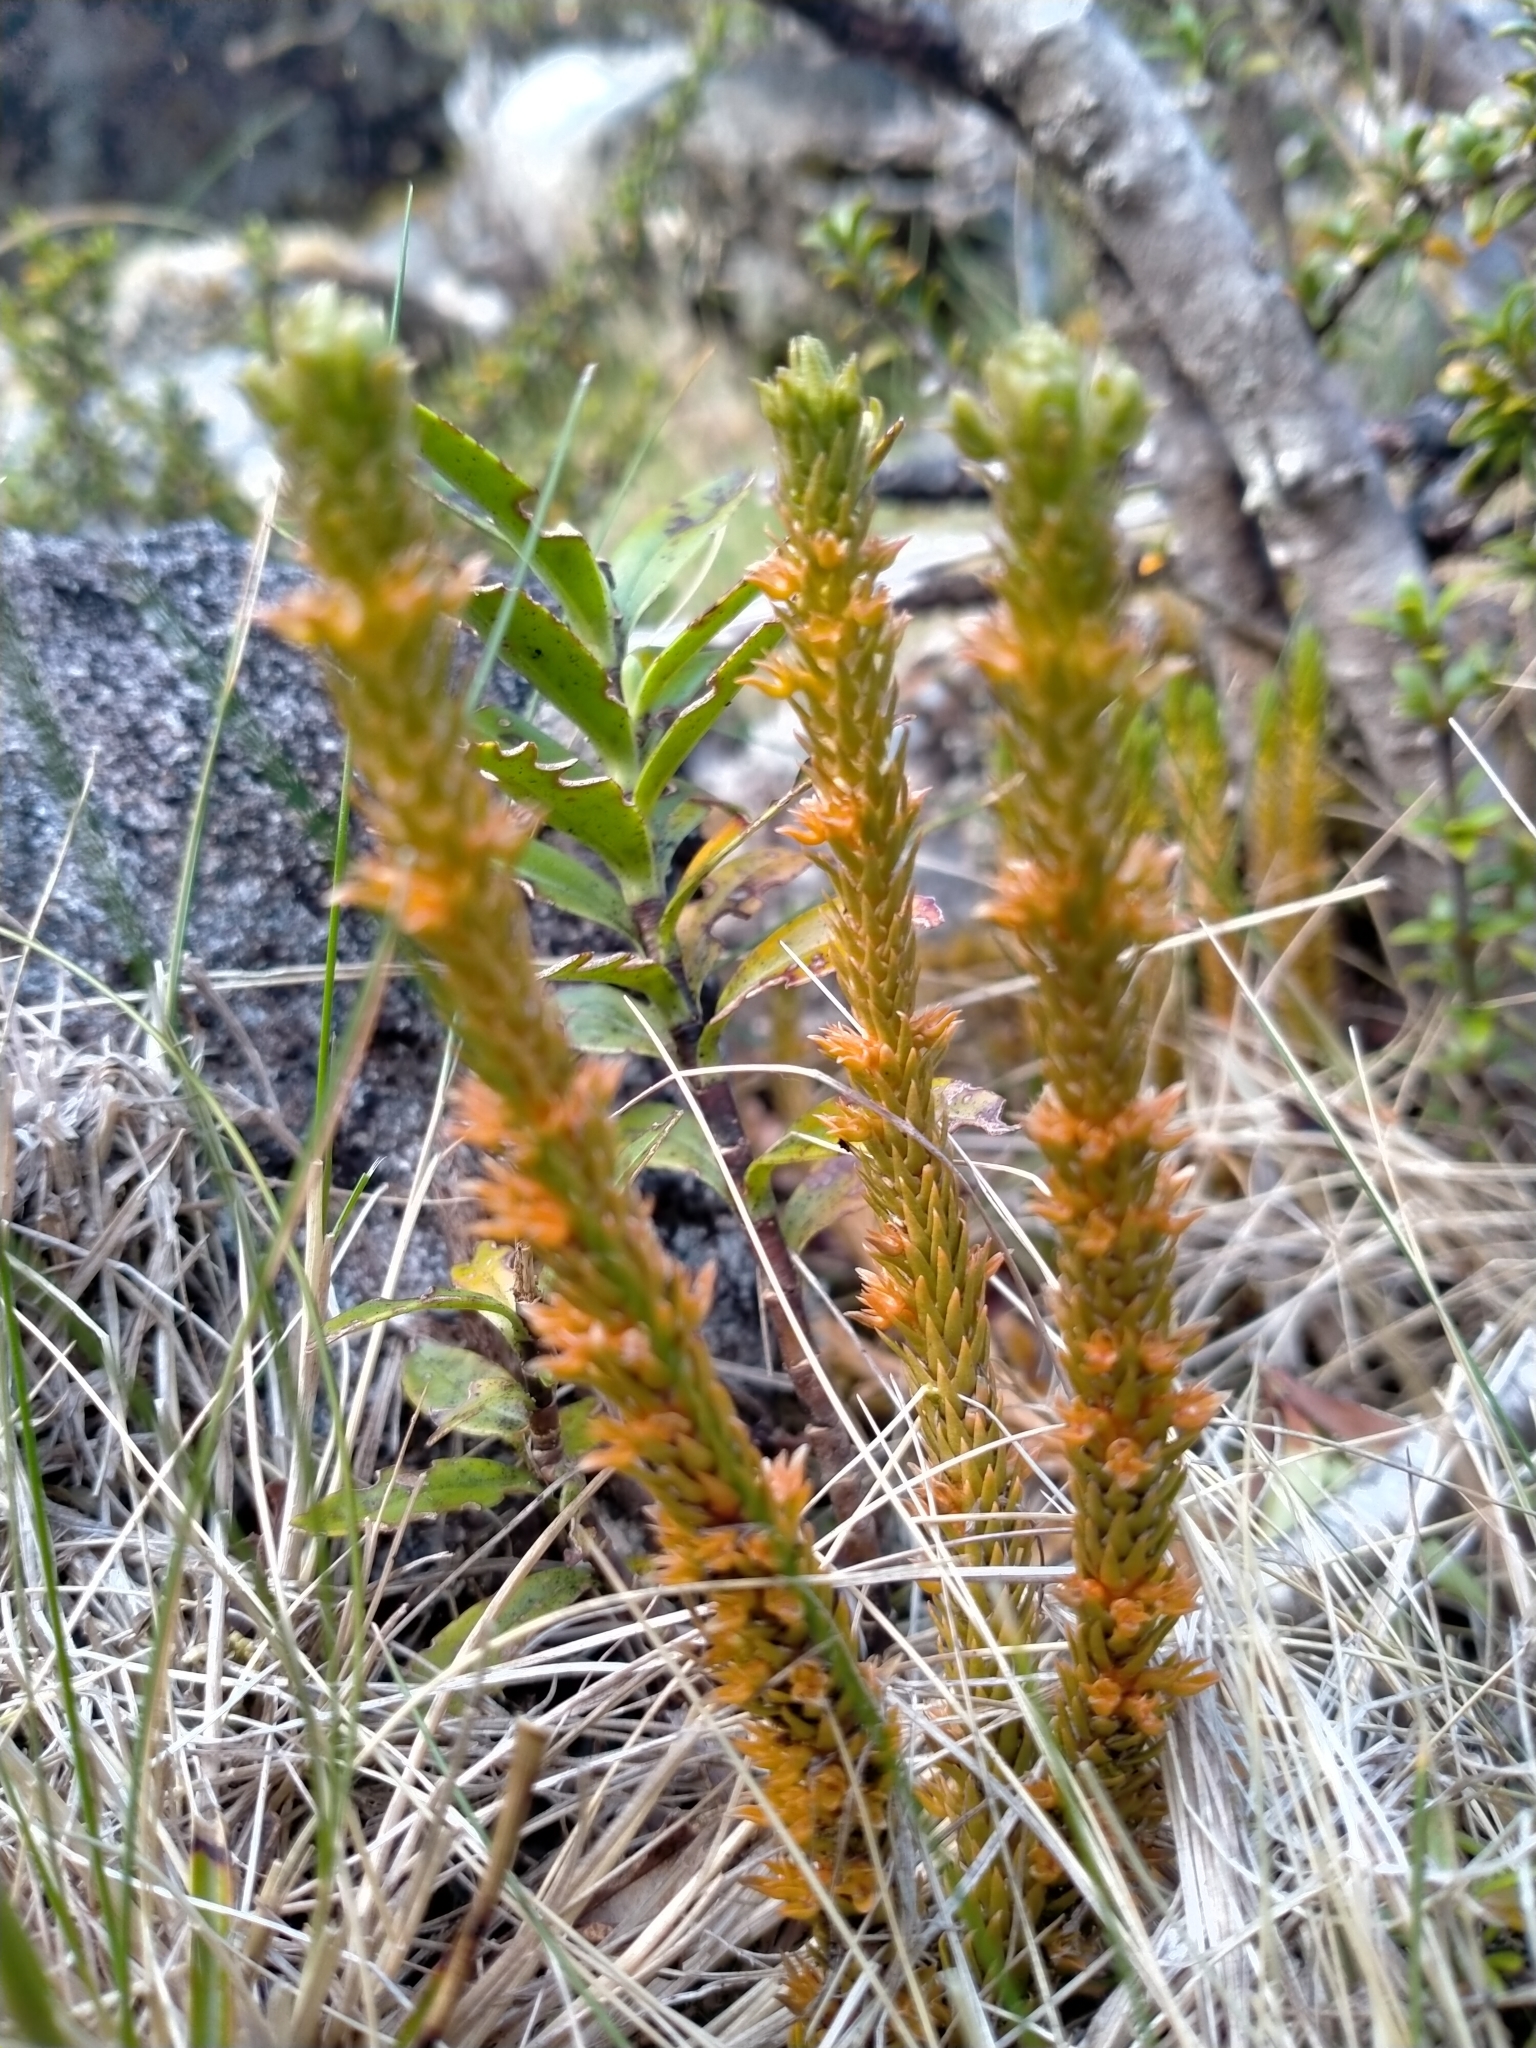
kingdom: Plantae
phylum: Tracheophyta
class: Lycopodiopsida
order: Lycopodiales
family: Lycopodiaceae
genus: Huperzia
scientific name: Huperzia australiana
